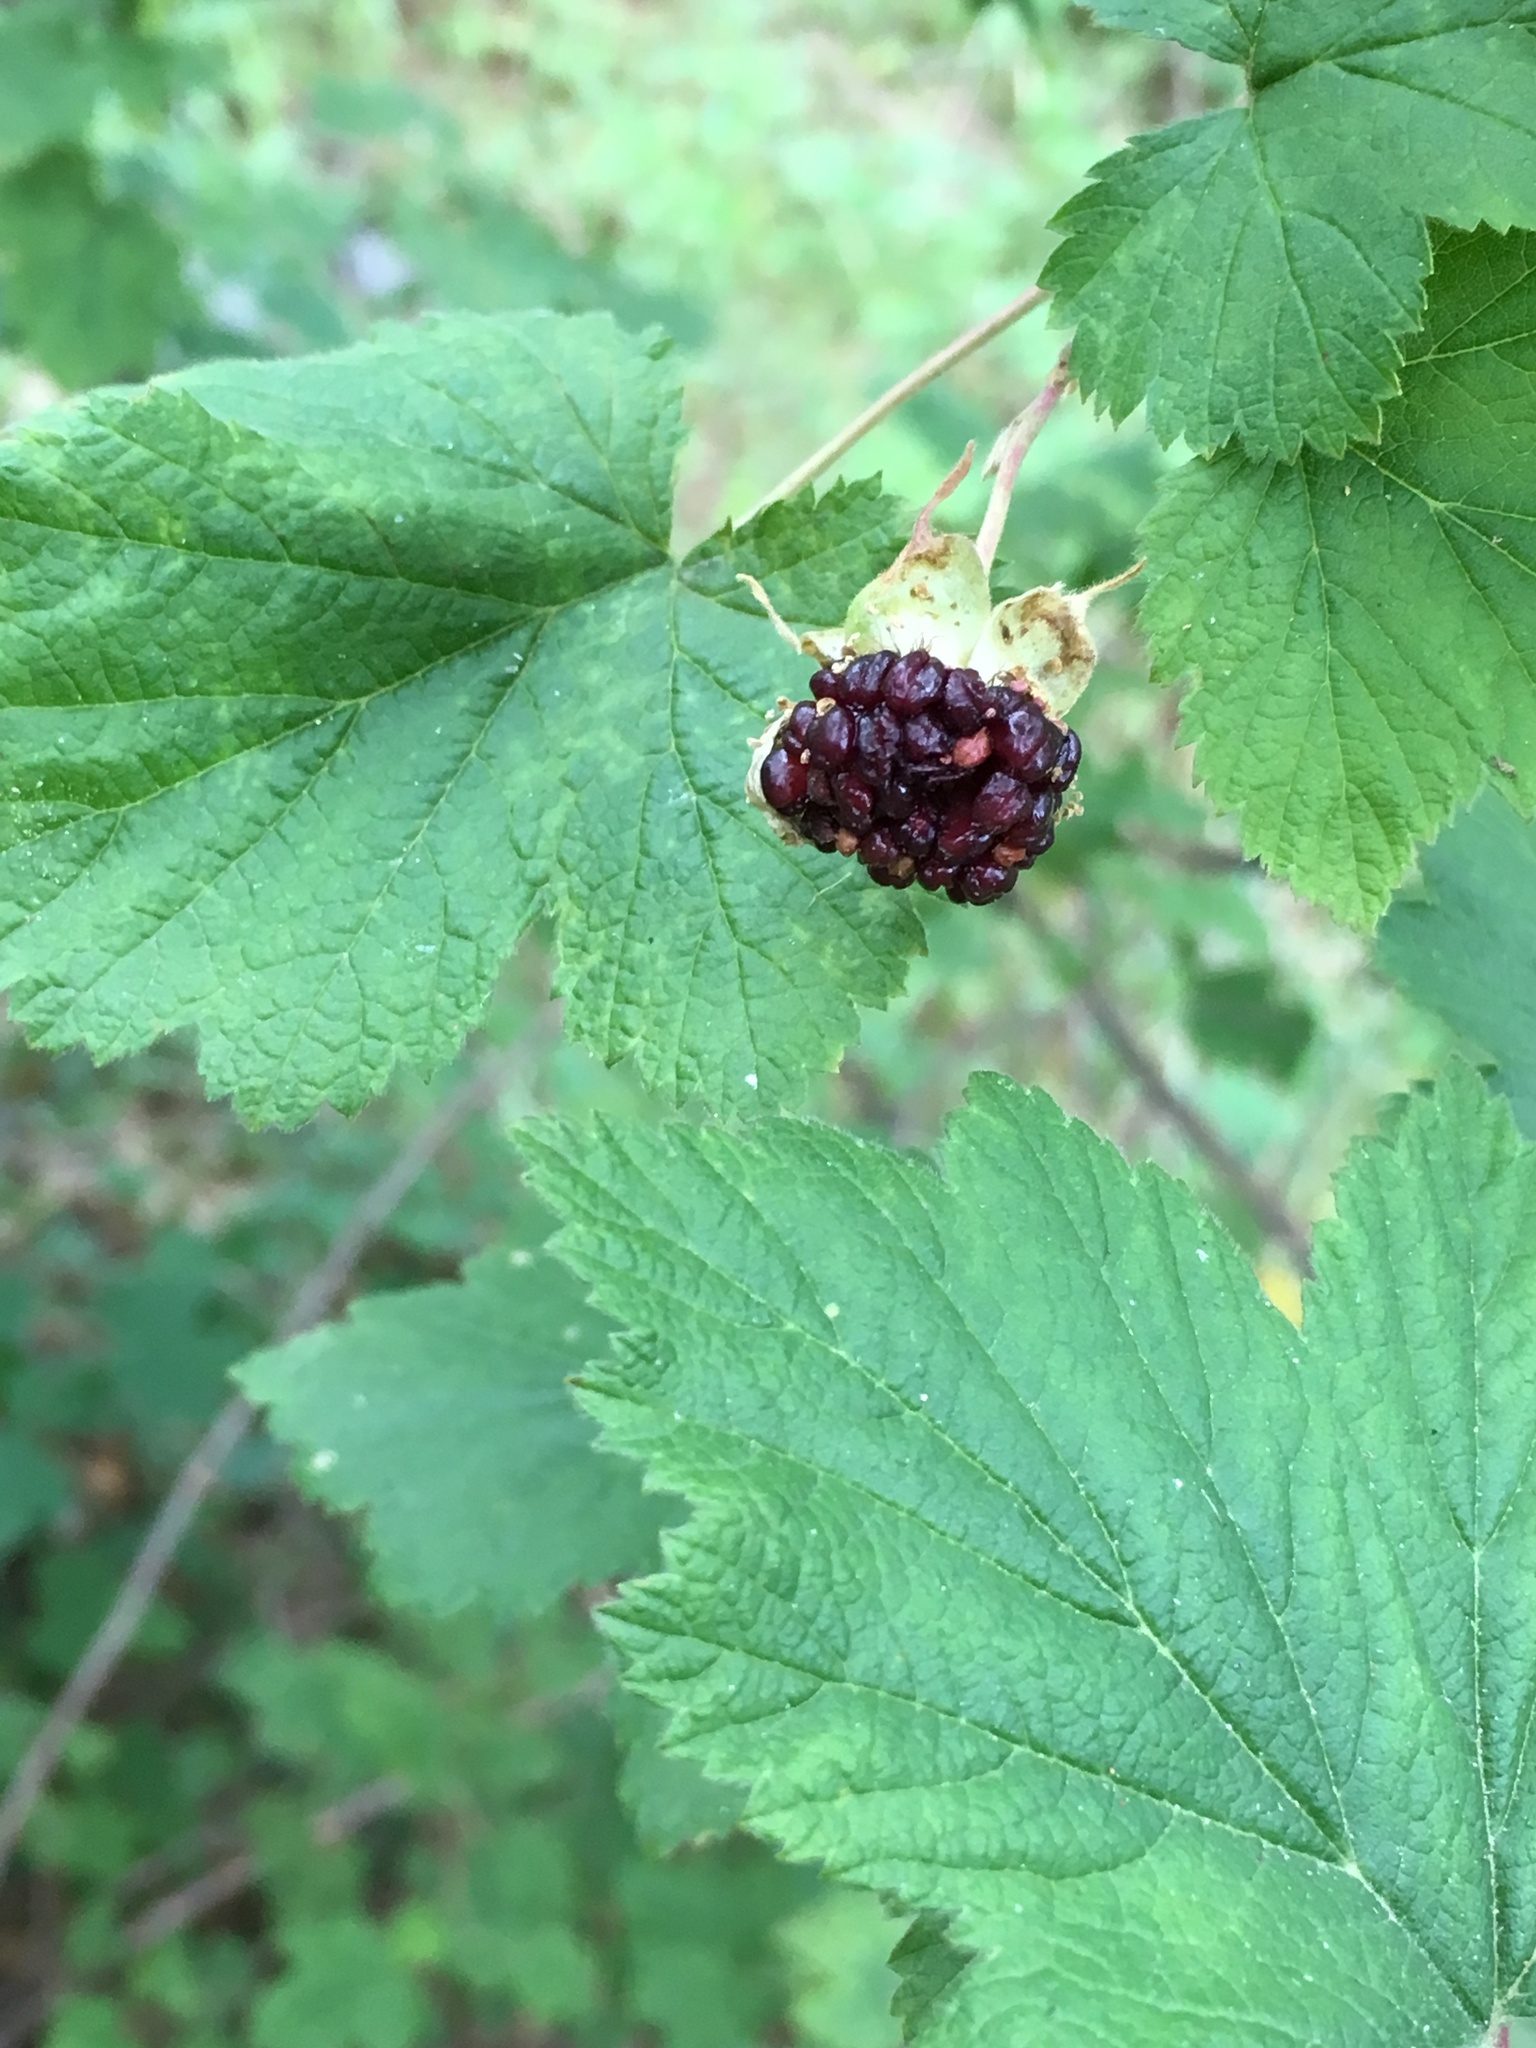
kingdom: Plantae
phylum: Tracheophyta
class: Magnoliopsida
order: Rosales
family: Rosaceae
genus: Rubus
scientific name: Rubus neomexicanus
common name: New mexico raspberry
